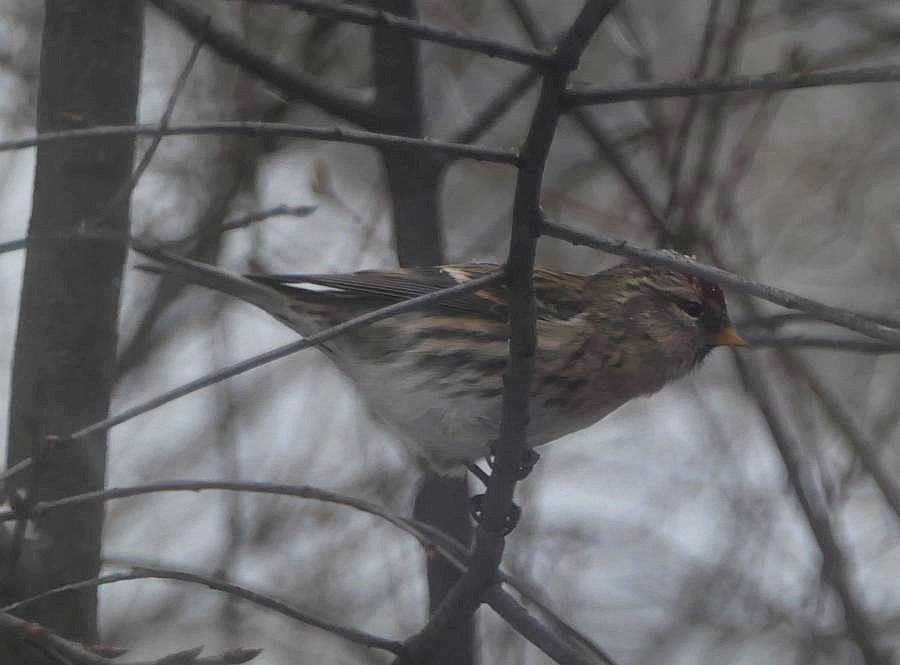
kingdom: Animalia
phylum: Chordata
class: Aves
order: Passeriformes
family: Fringillidae
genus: Acanthis
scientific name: Acanthis flammea
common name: Common redpoll
